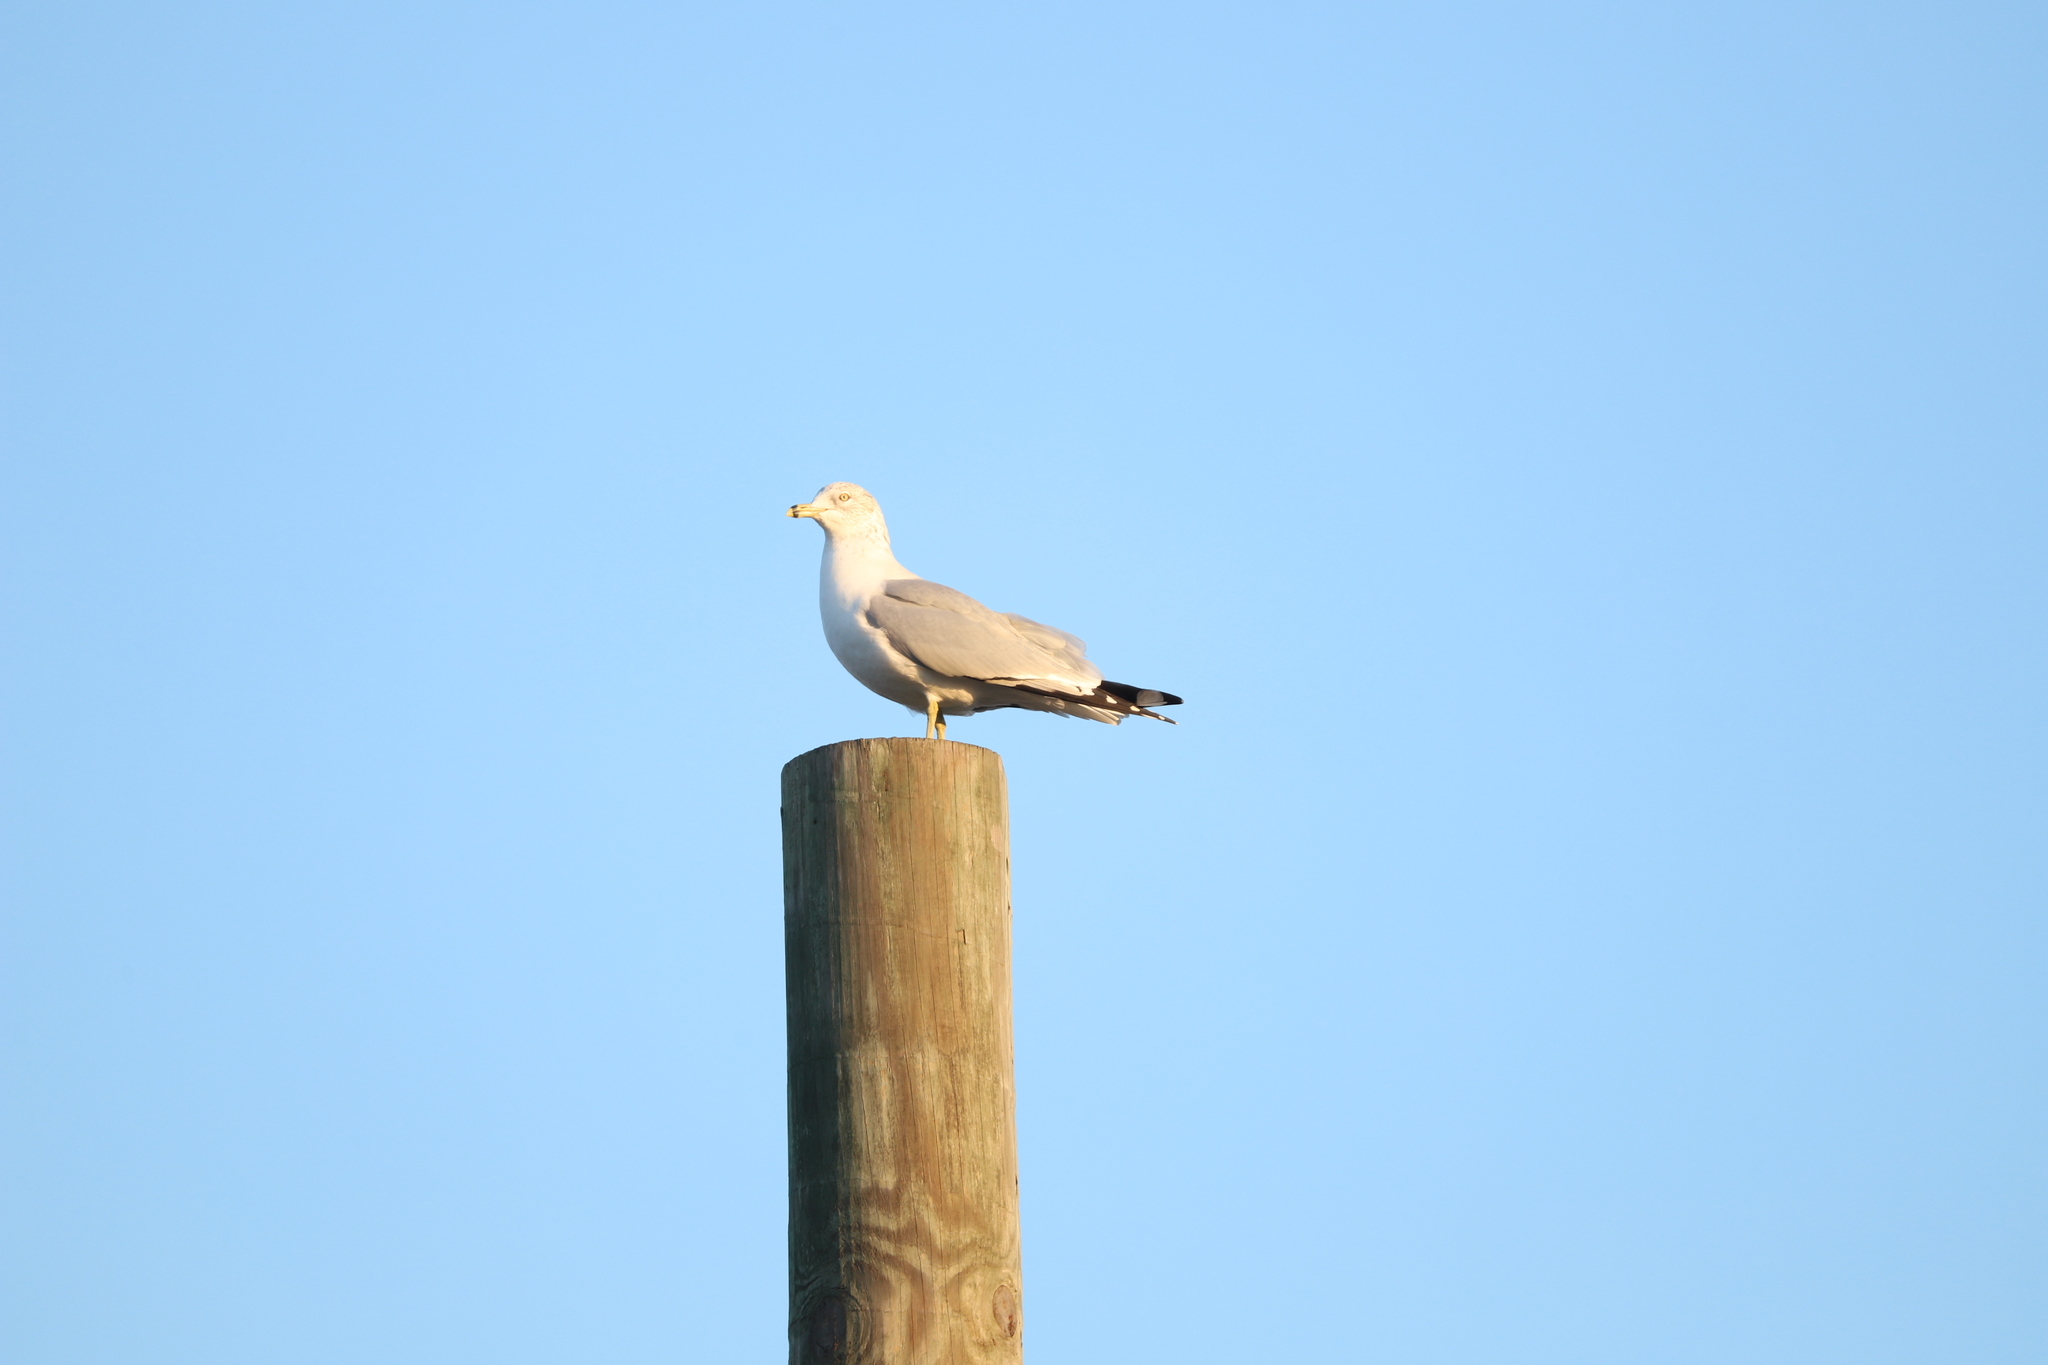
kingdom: Animalia
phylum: Chordata
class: Aves
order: Charadriiformes
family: Laridae
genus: Larus
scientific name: Larus delawarensis
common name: Ring-billed gull
